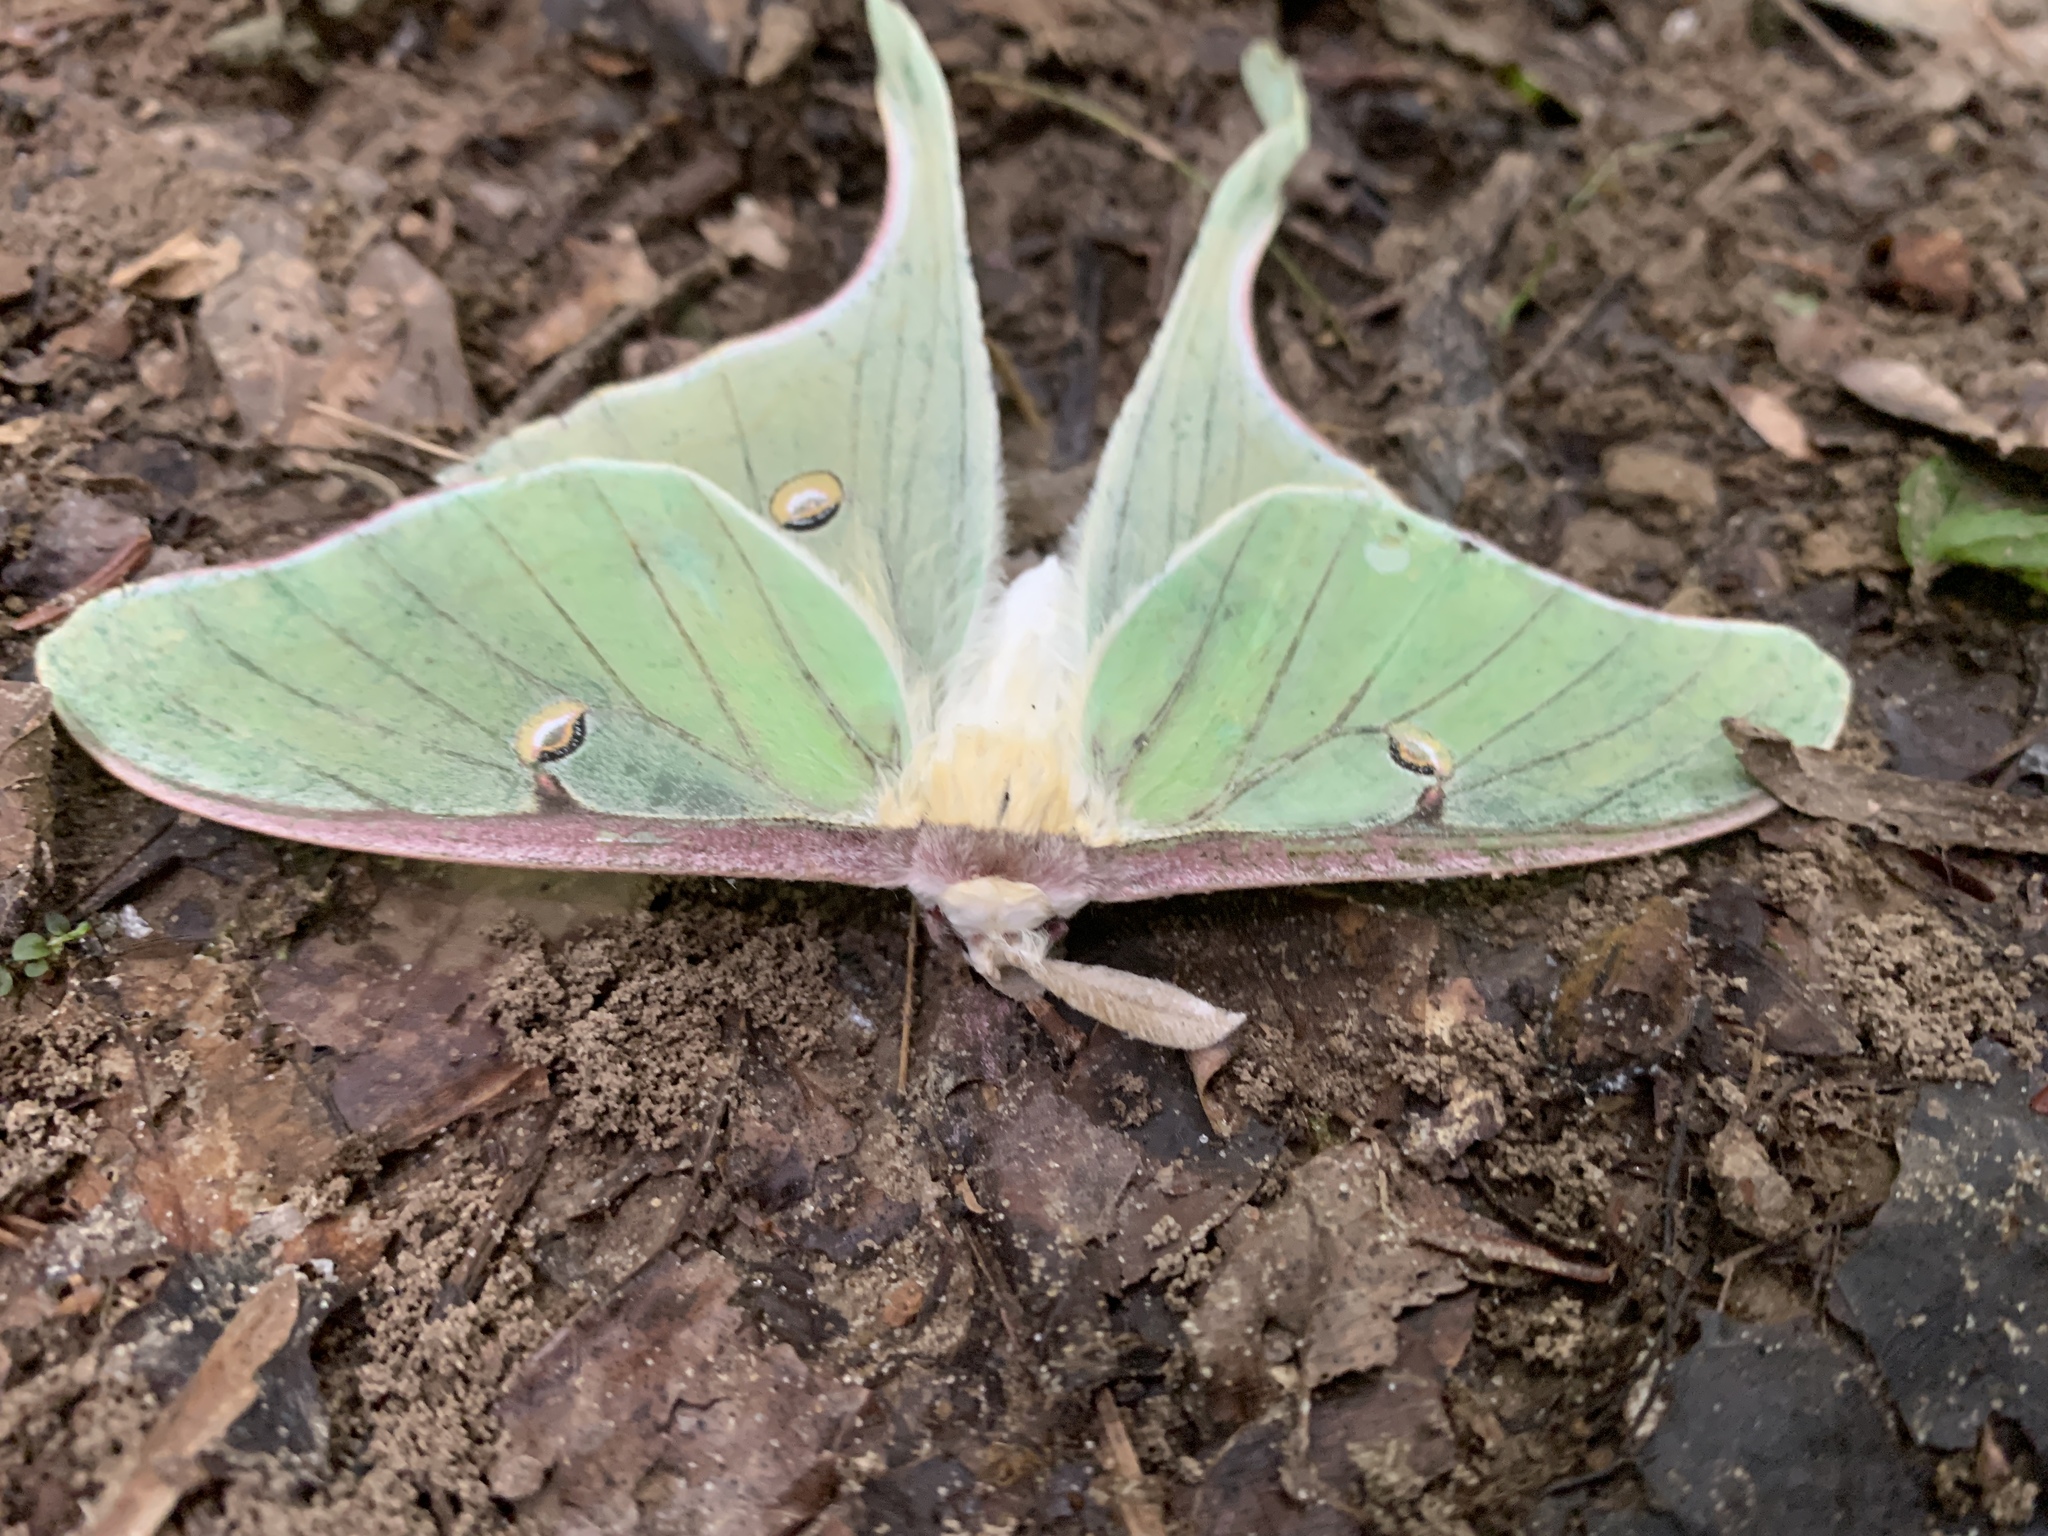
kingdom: Animalia
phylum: Arthropoda
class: Insecta
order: Lepidoptera
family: Saturniidae
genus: Actias
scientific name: Actias luna
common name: Luna moth
